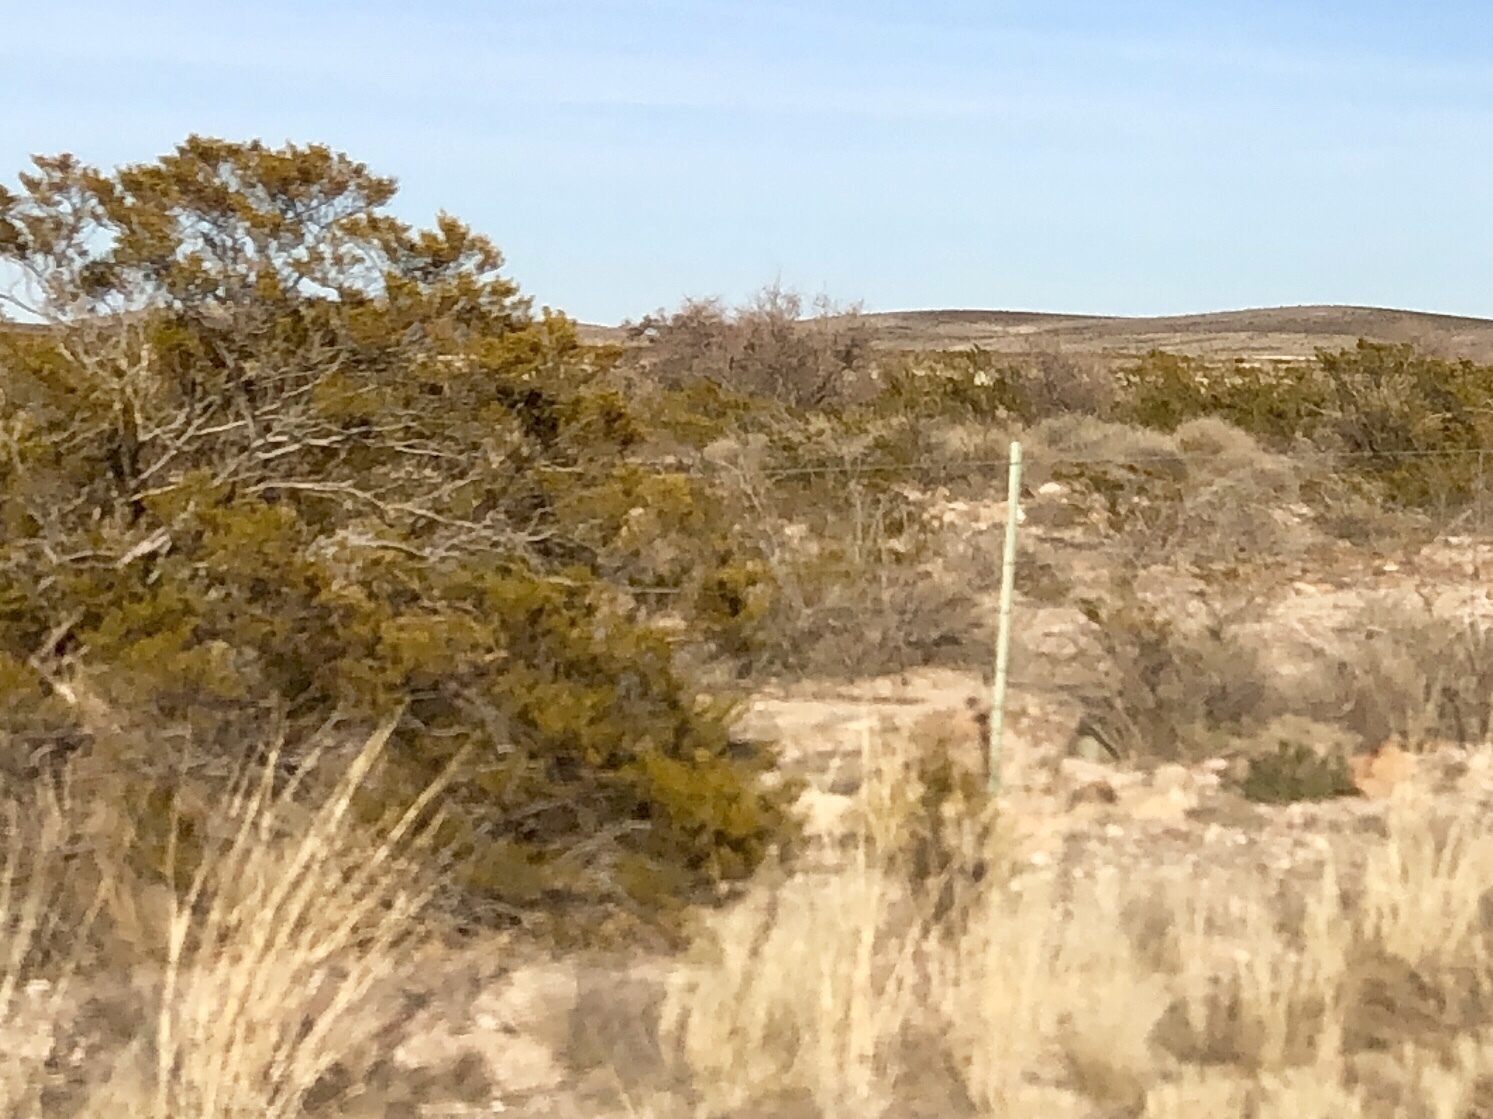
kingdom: Plantae
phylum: Tracheophyta
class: Magnoliopsida
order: Zygophyllales
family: Zygophyllaceae
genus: Larrea
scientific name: Larrea tridentata
